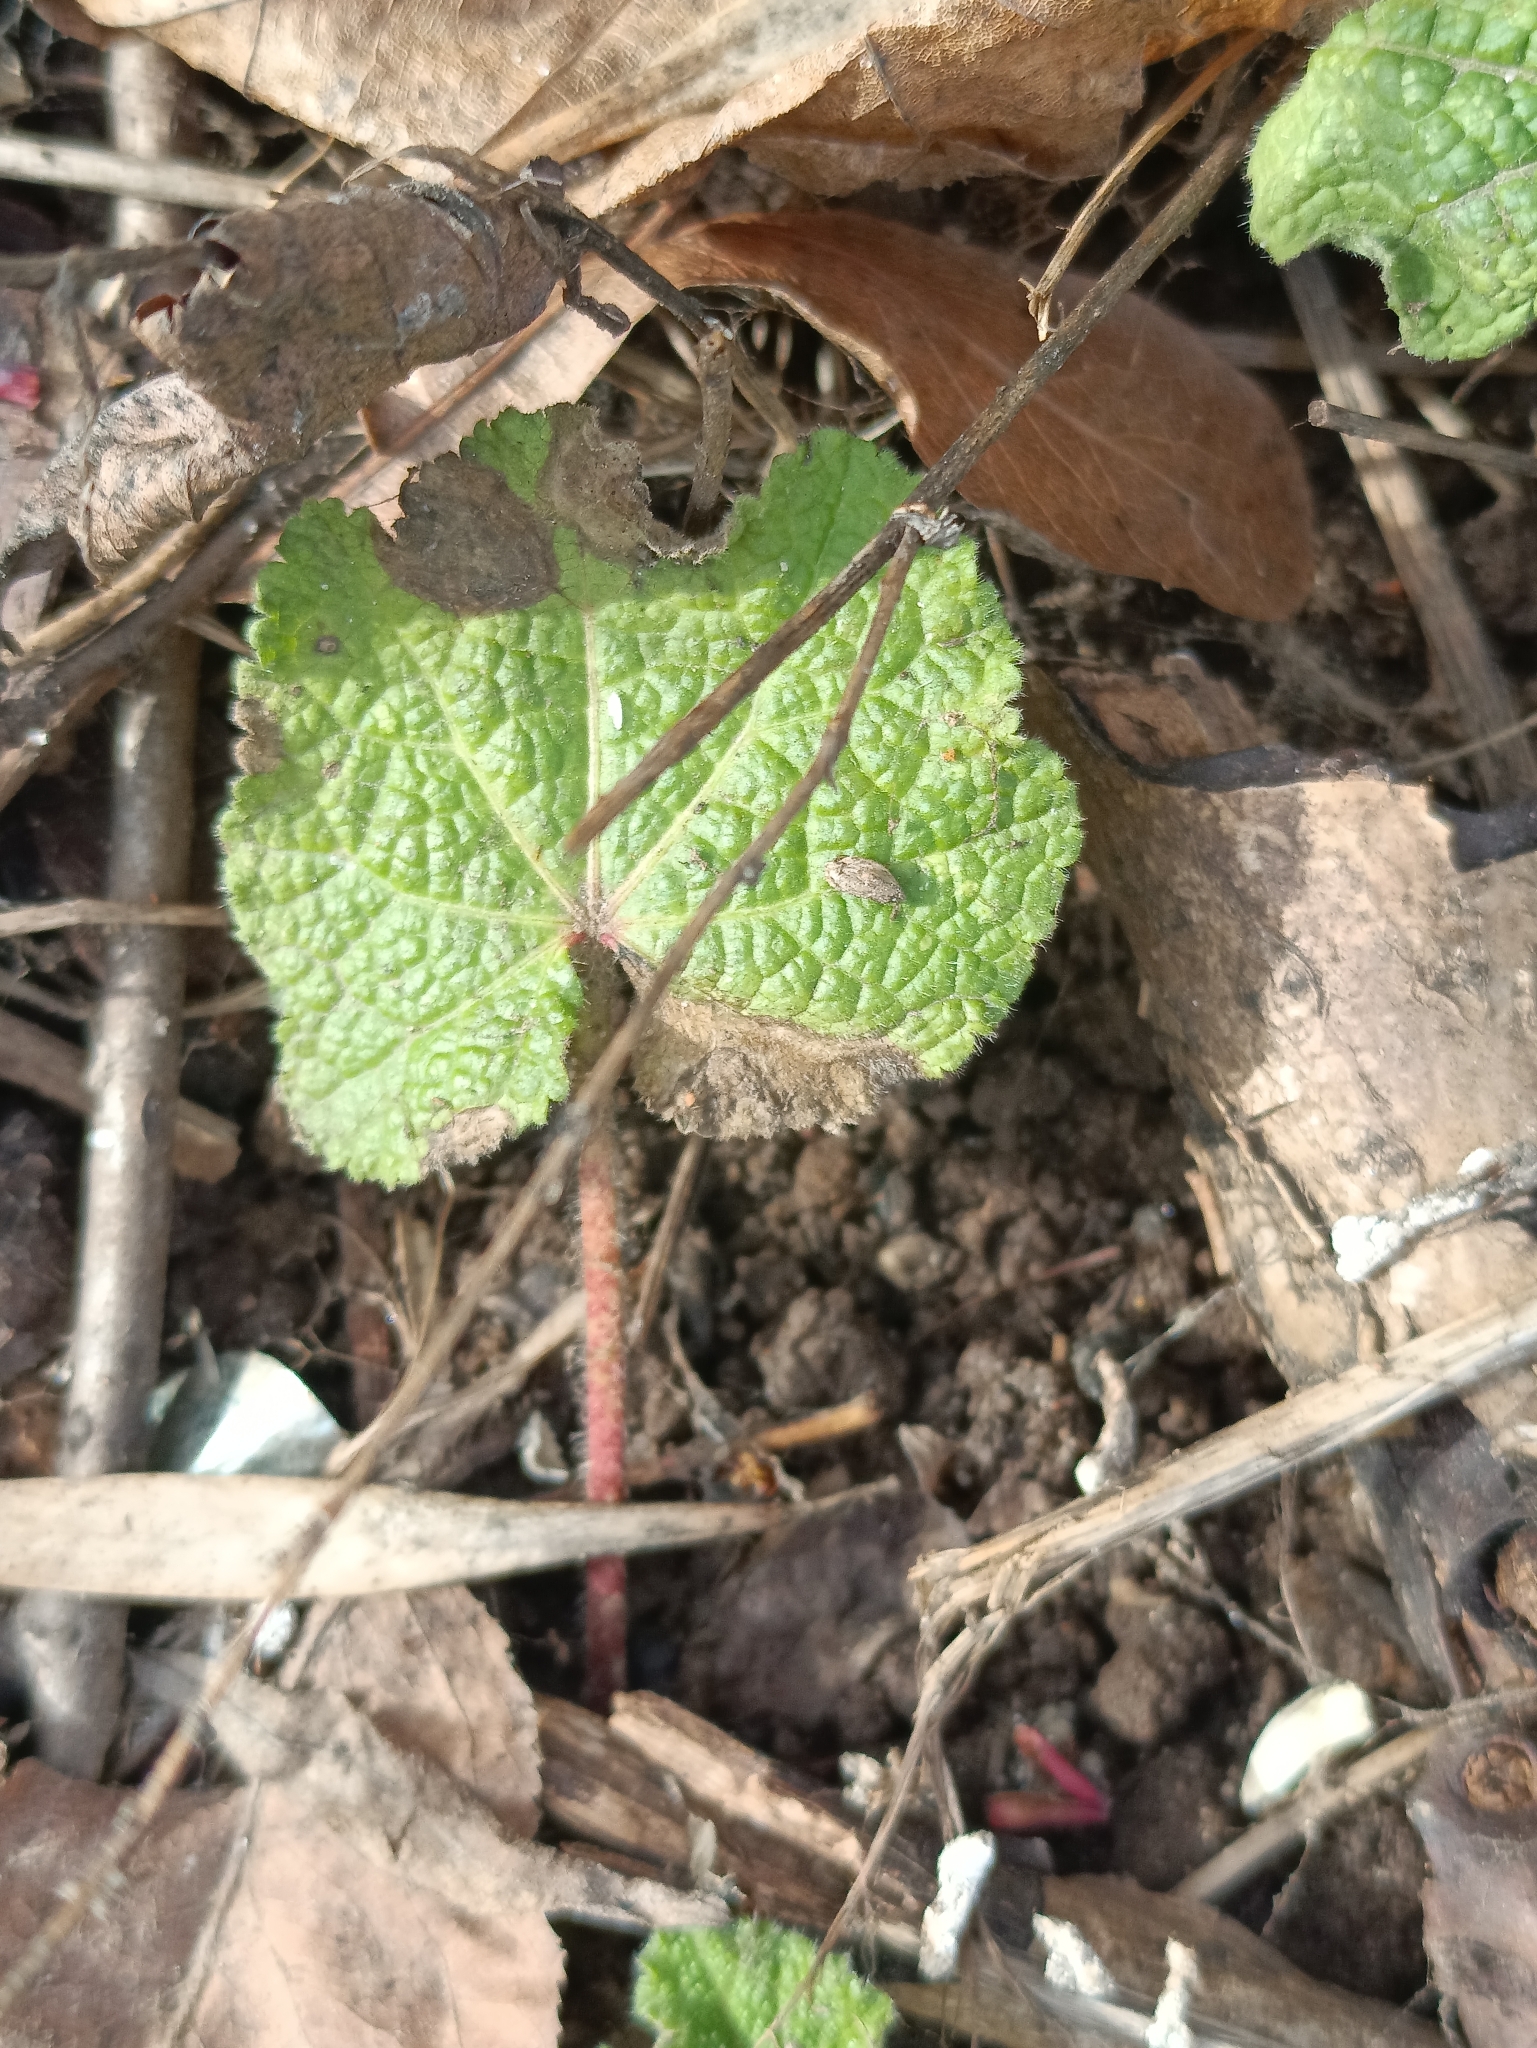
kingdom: Plantae
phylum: Tracheophyta
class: Magnoliopsida
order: Malvales
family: Malvaceae
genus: Alcea
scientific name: Alcea rosea
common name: Hollyhock
